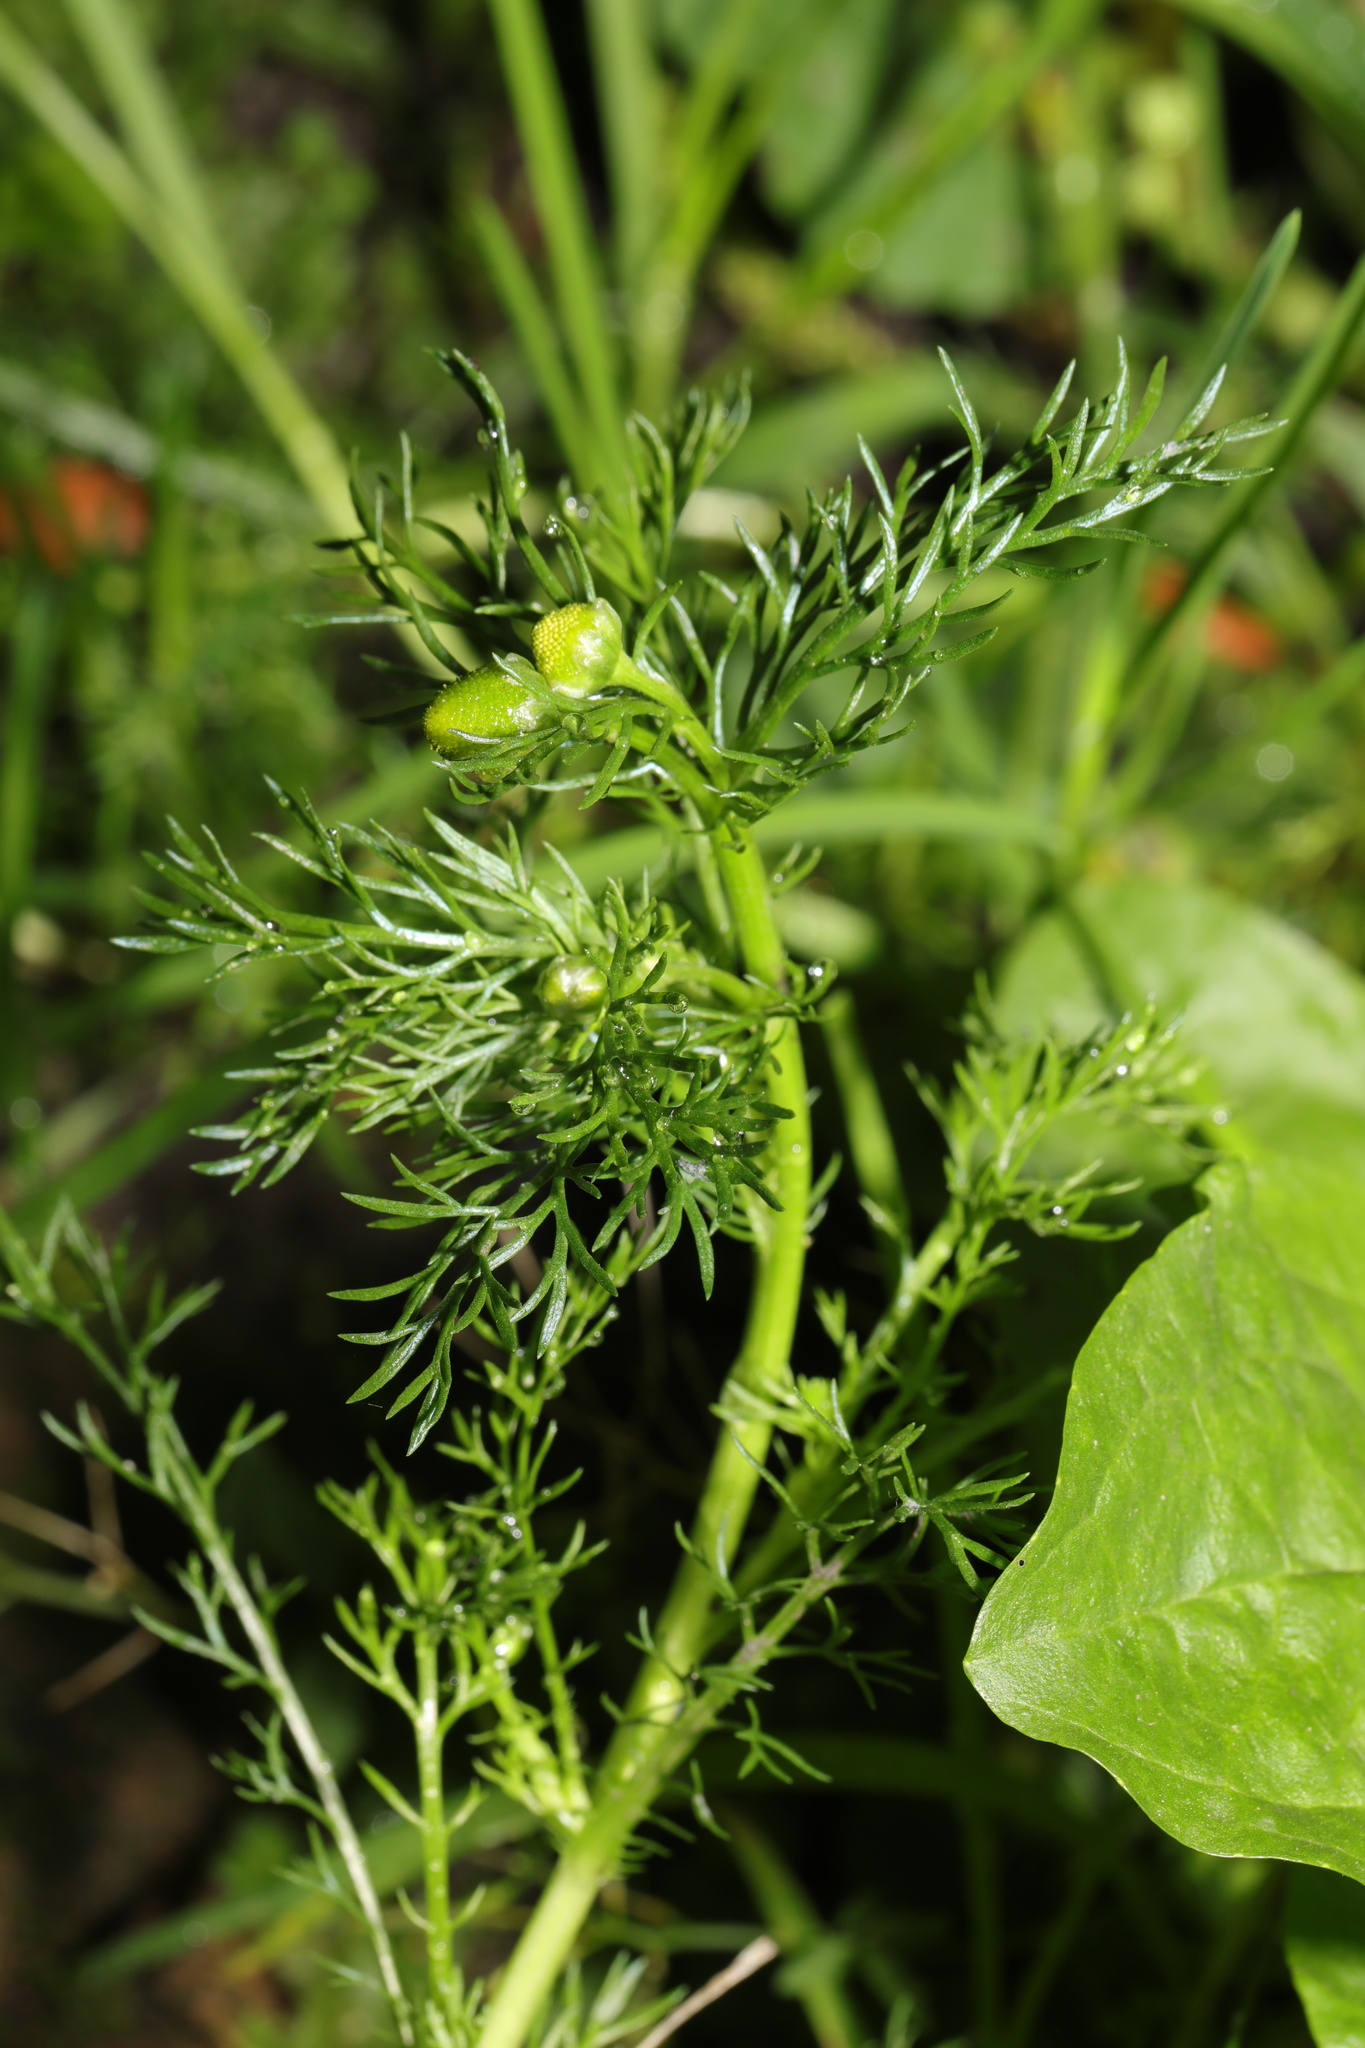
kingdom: Plantae
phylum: Tracheophyta
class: Magnoliopsida
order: Asterales
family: Asteraceae
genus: Matricaria
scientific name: Matricaria discoidea
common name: Disc mayweed
